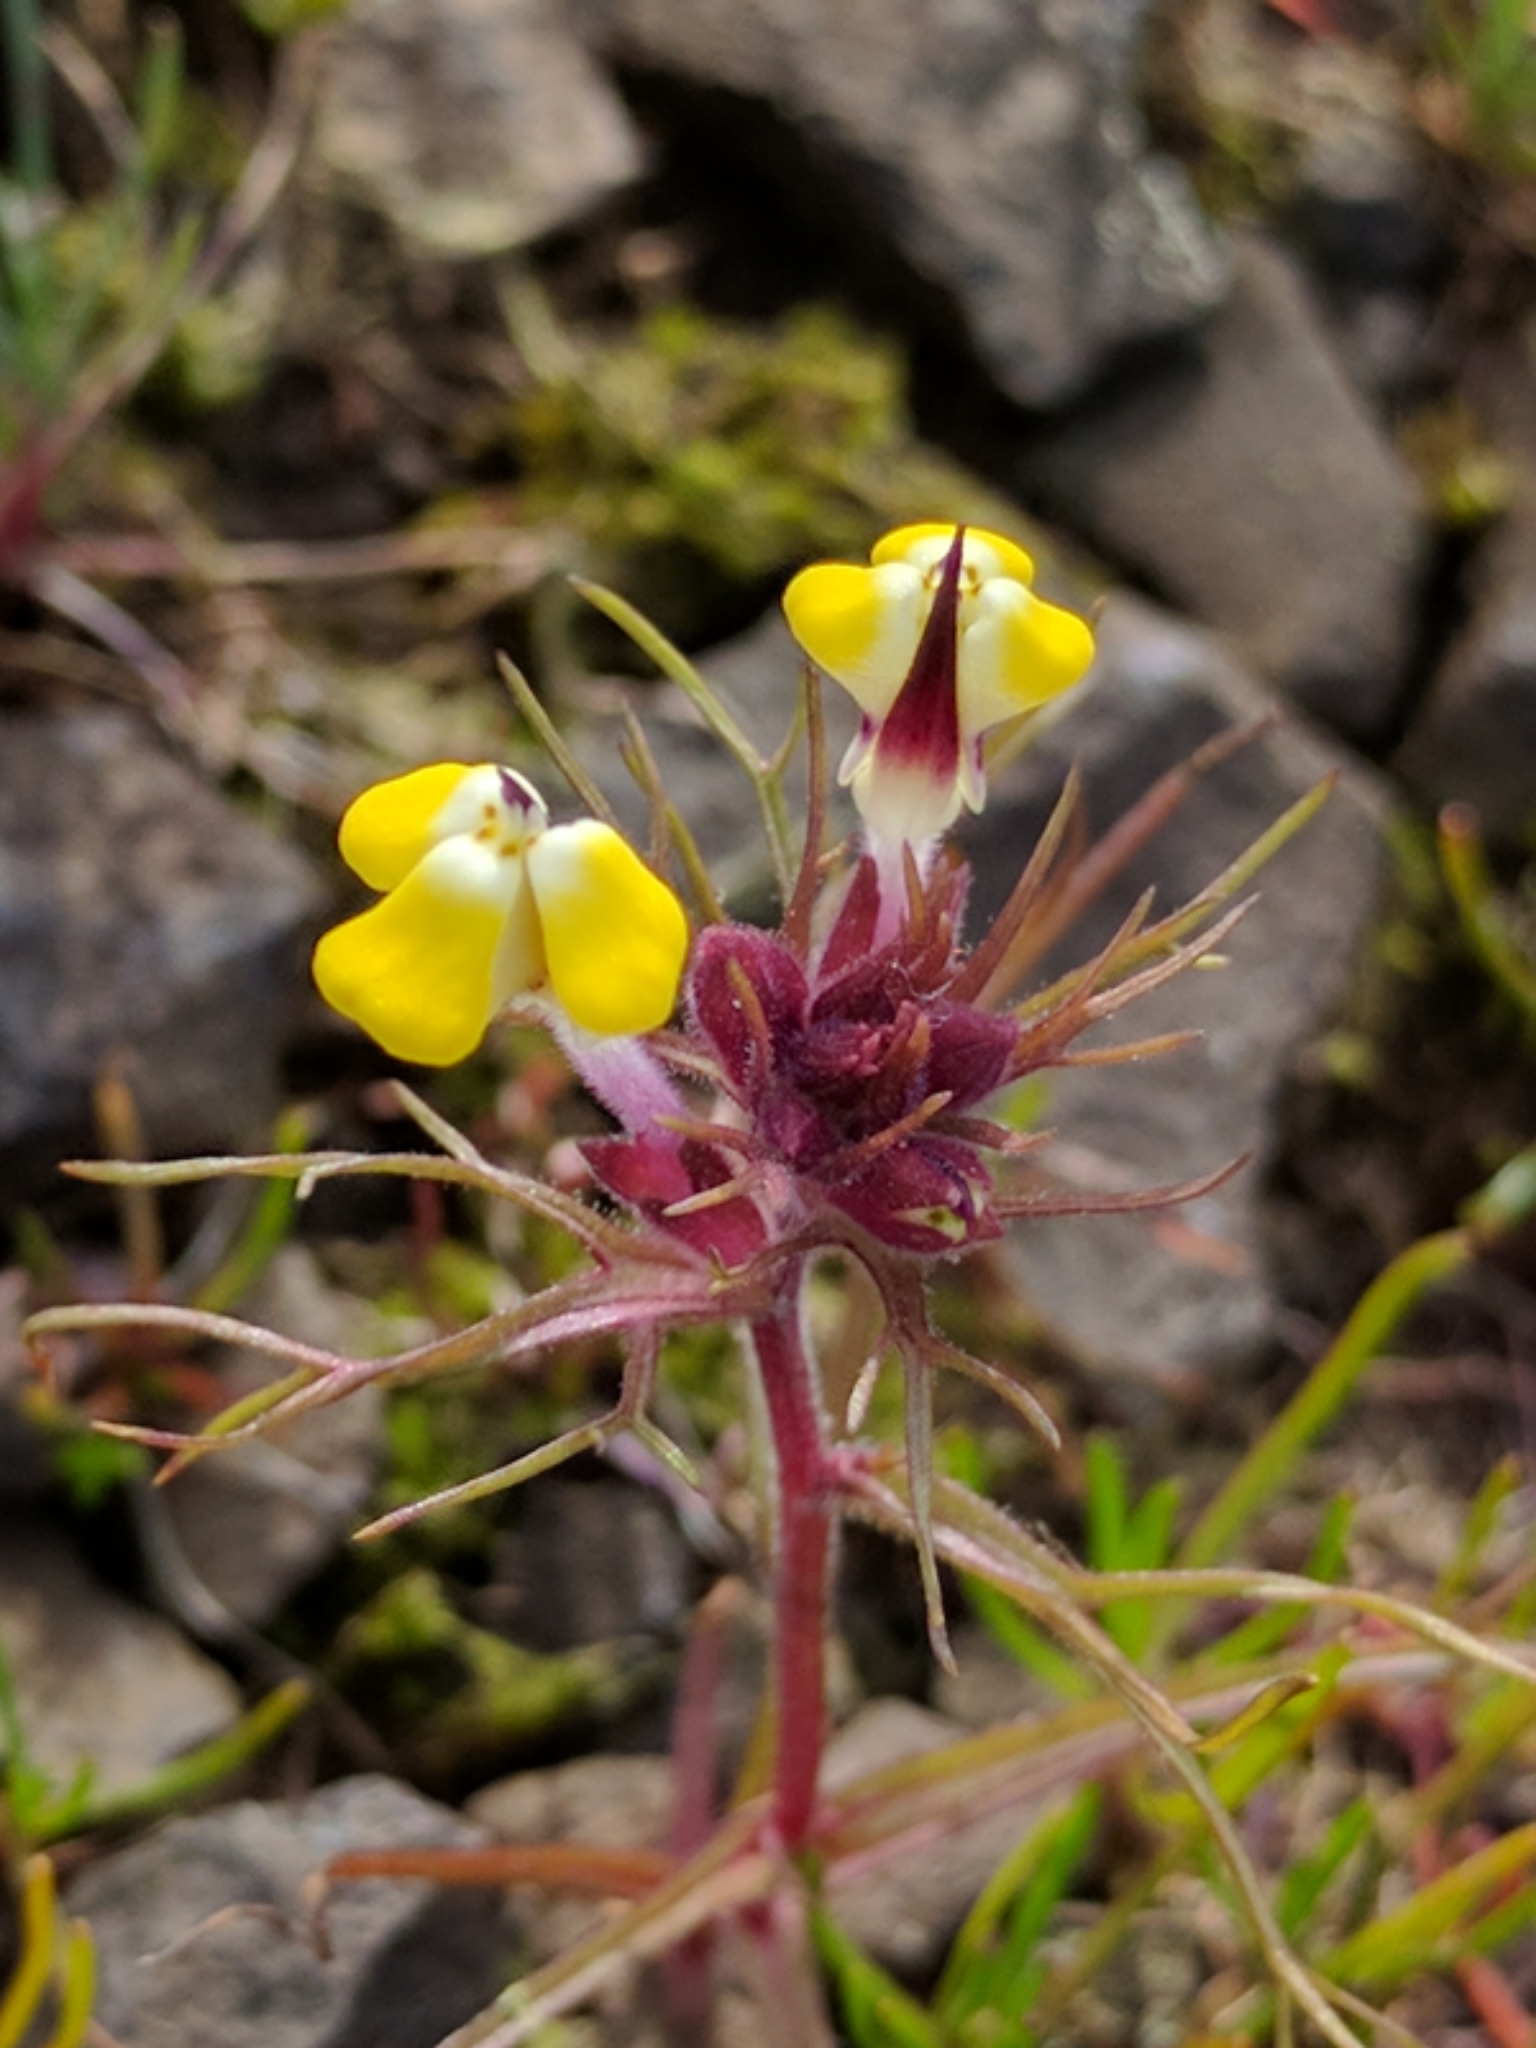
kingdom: Plantae
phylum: Tracheophyta
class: Magnoliopsida
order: Lamiales
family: Orobanchaceae
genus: Triphysaria
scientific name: Triphysaria eriantha
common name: Johnny-tuck
